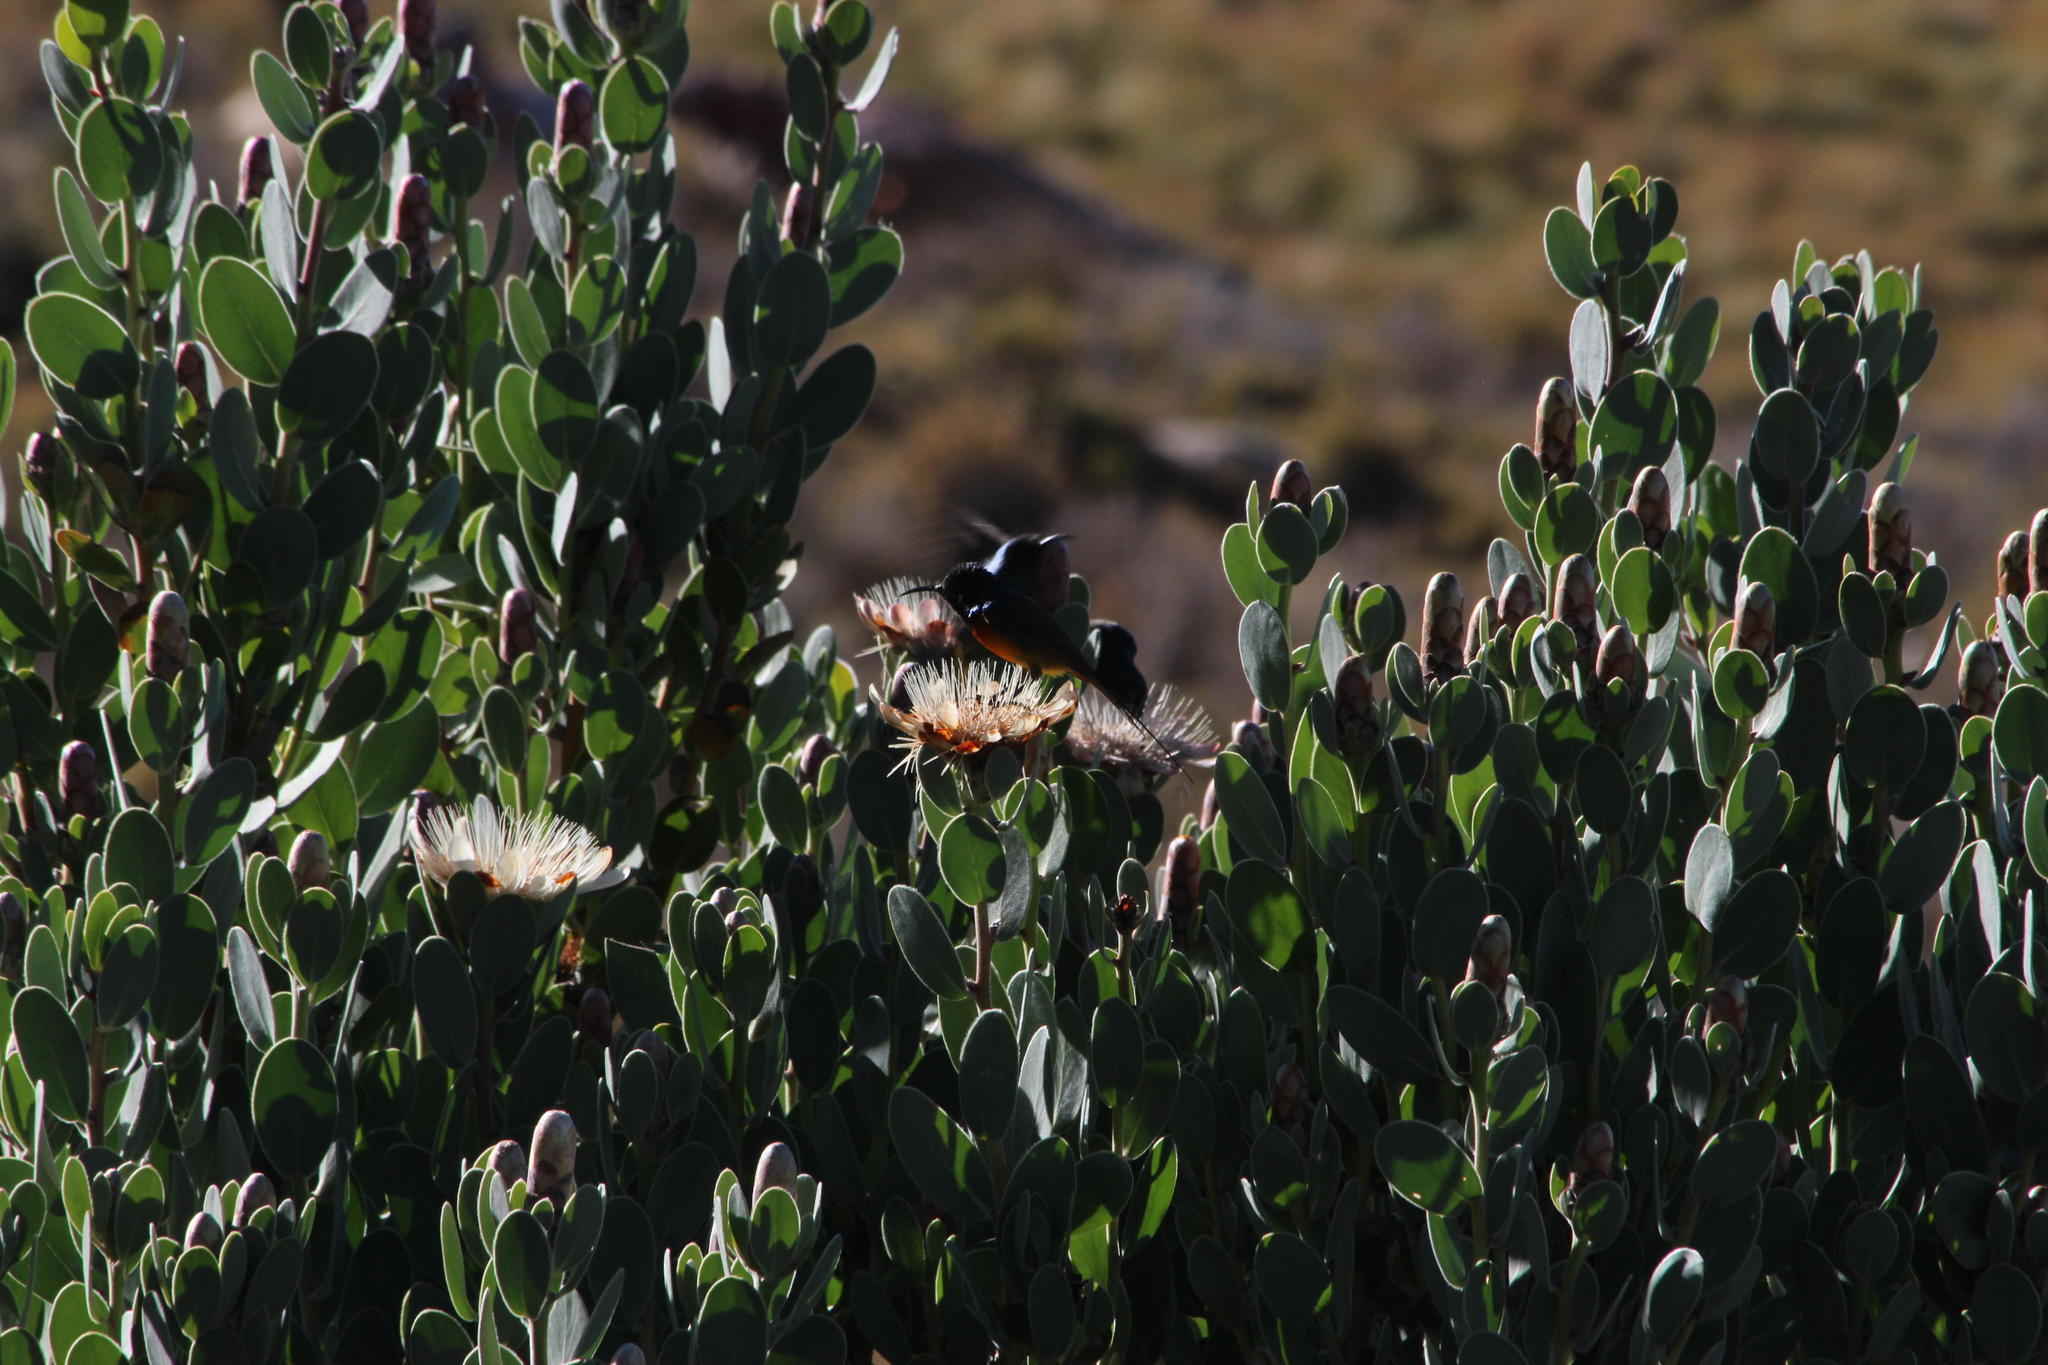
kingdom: Animalia
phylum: Chordata
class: Aves
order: Passeriformes
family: Nectariniidae
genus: Anthobaphes
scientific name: Anthobaphes violacea
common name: Orange-breasted sunbird
